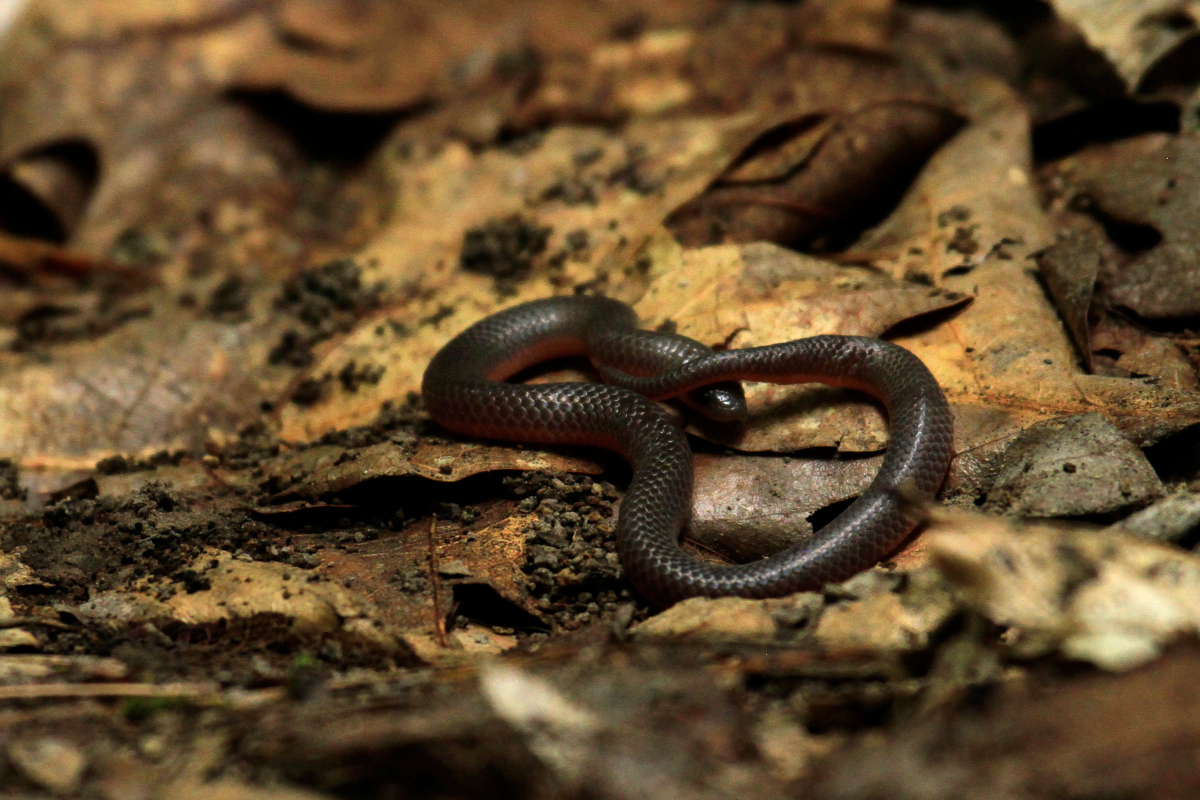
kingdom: Animalia
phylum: Chordata
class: Squamata
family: Colubridae
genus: Carphophis
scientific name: Carphophis amoenus
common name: Eastern worm snake
